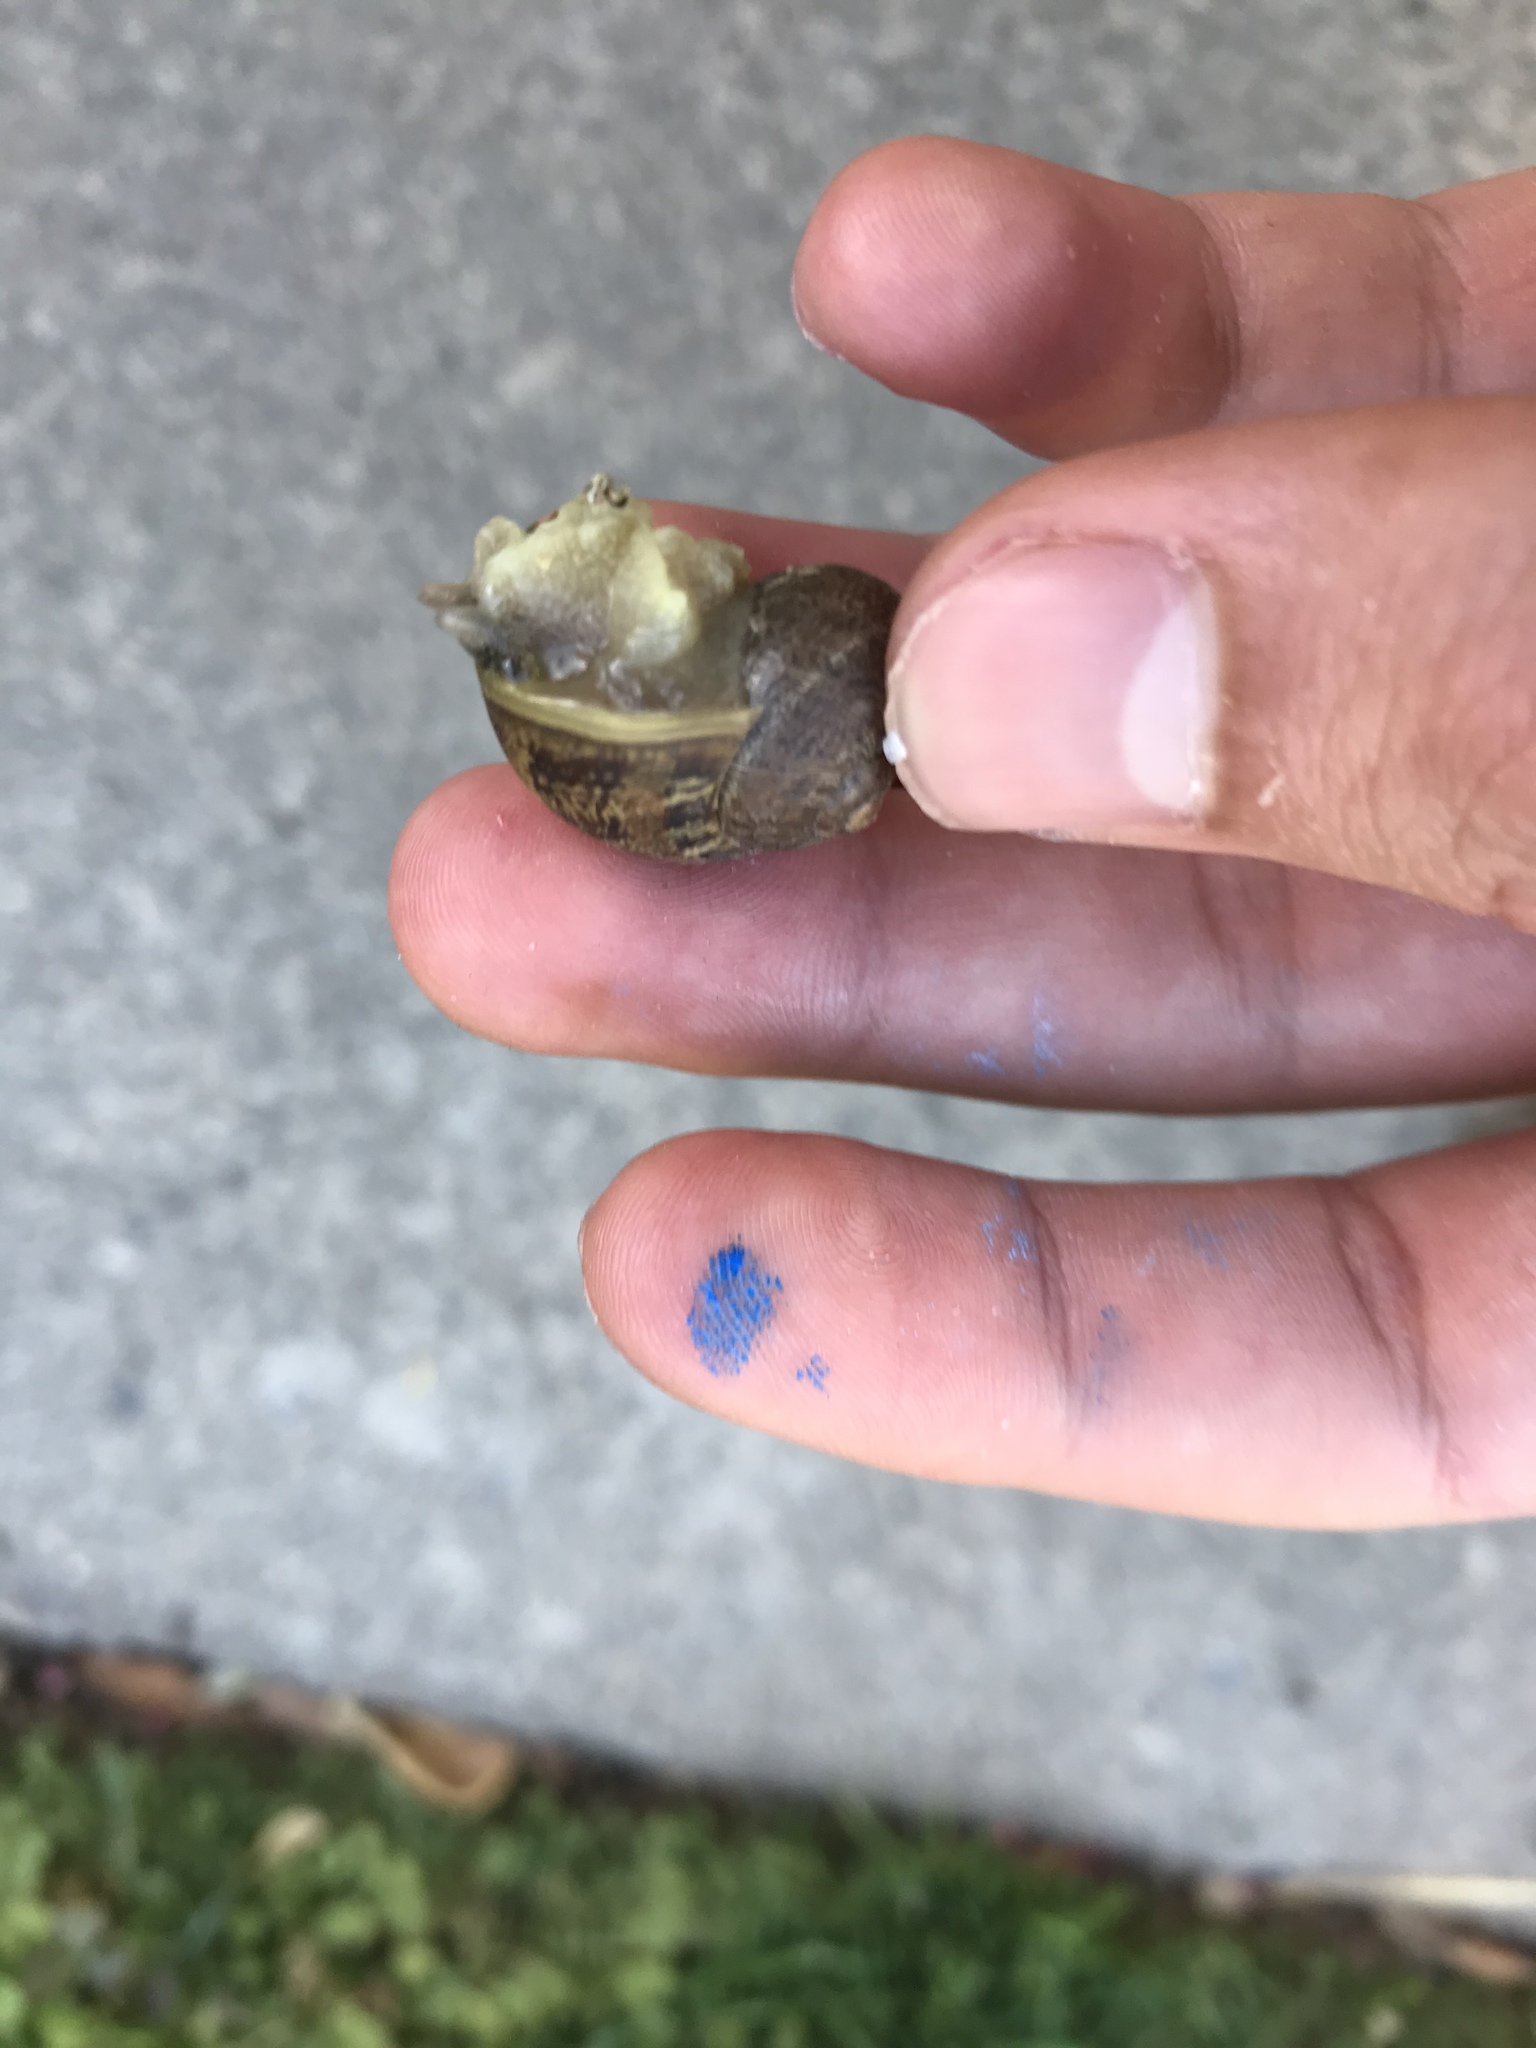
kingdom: Animalia
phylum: Mollusca
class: Gastropoda
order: Stylommatophora
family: Helicidae
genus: Cornu
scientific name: Cornu aspersum
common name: Brown garden snail
